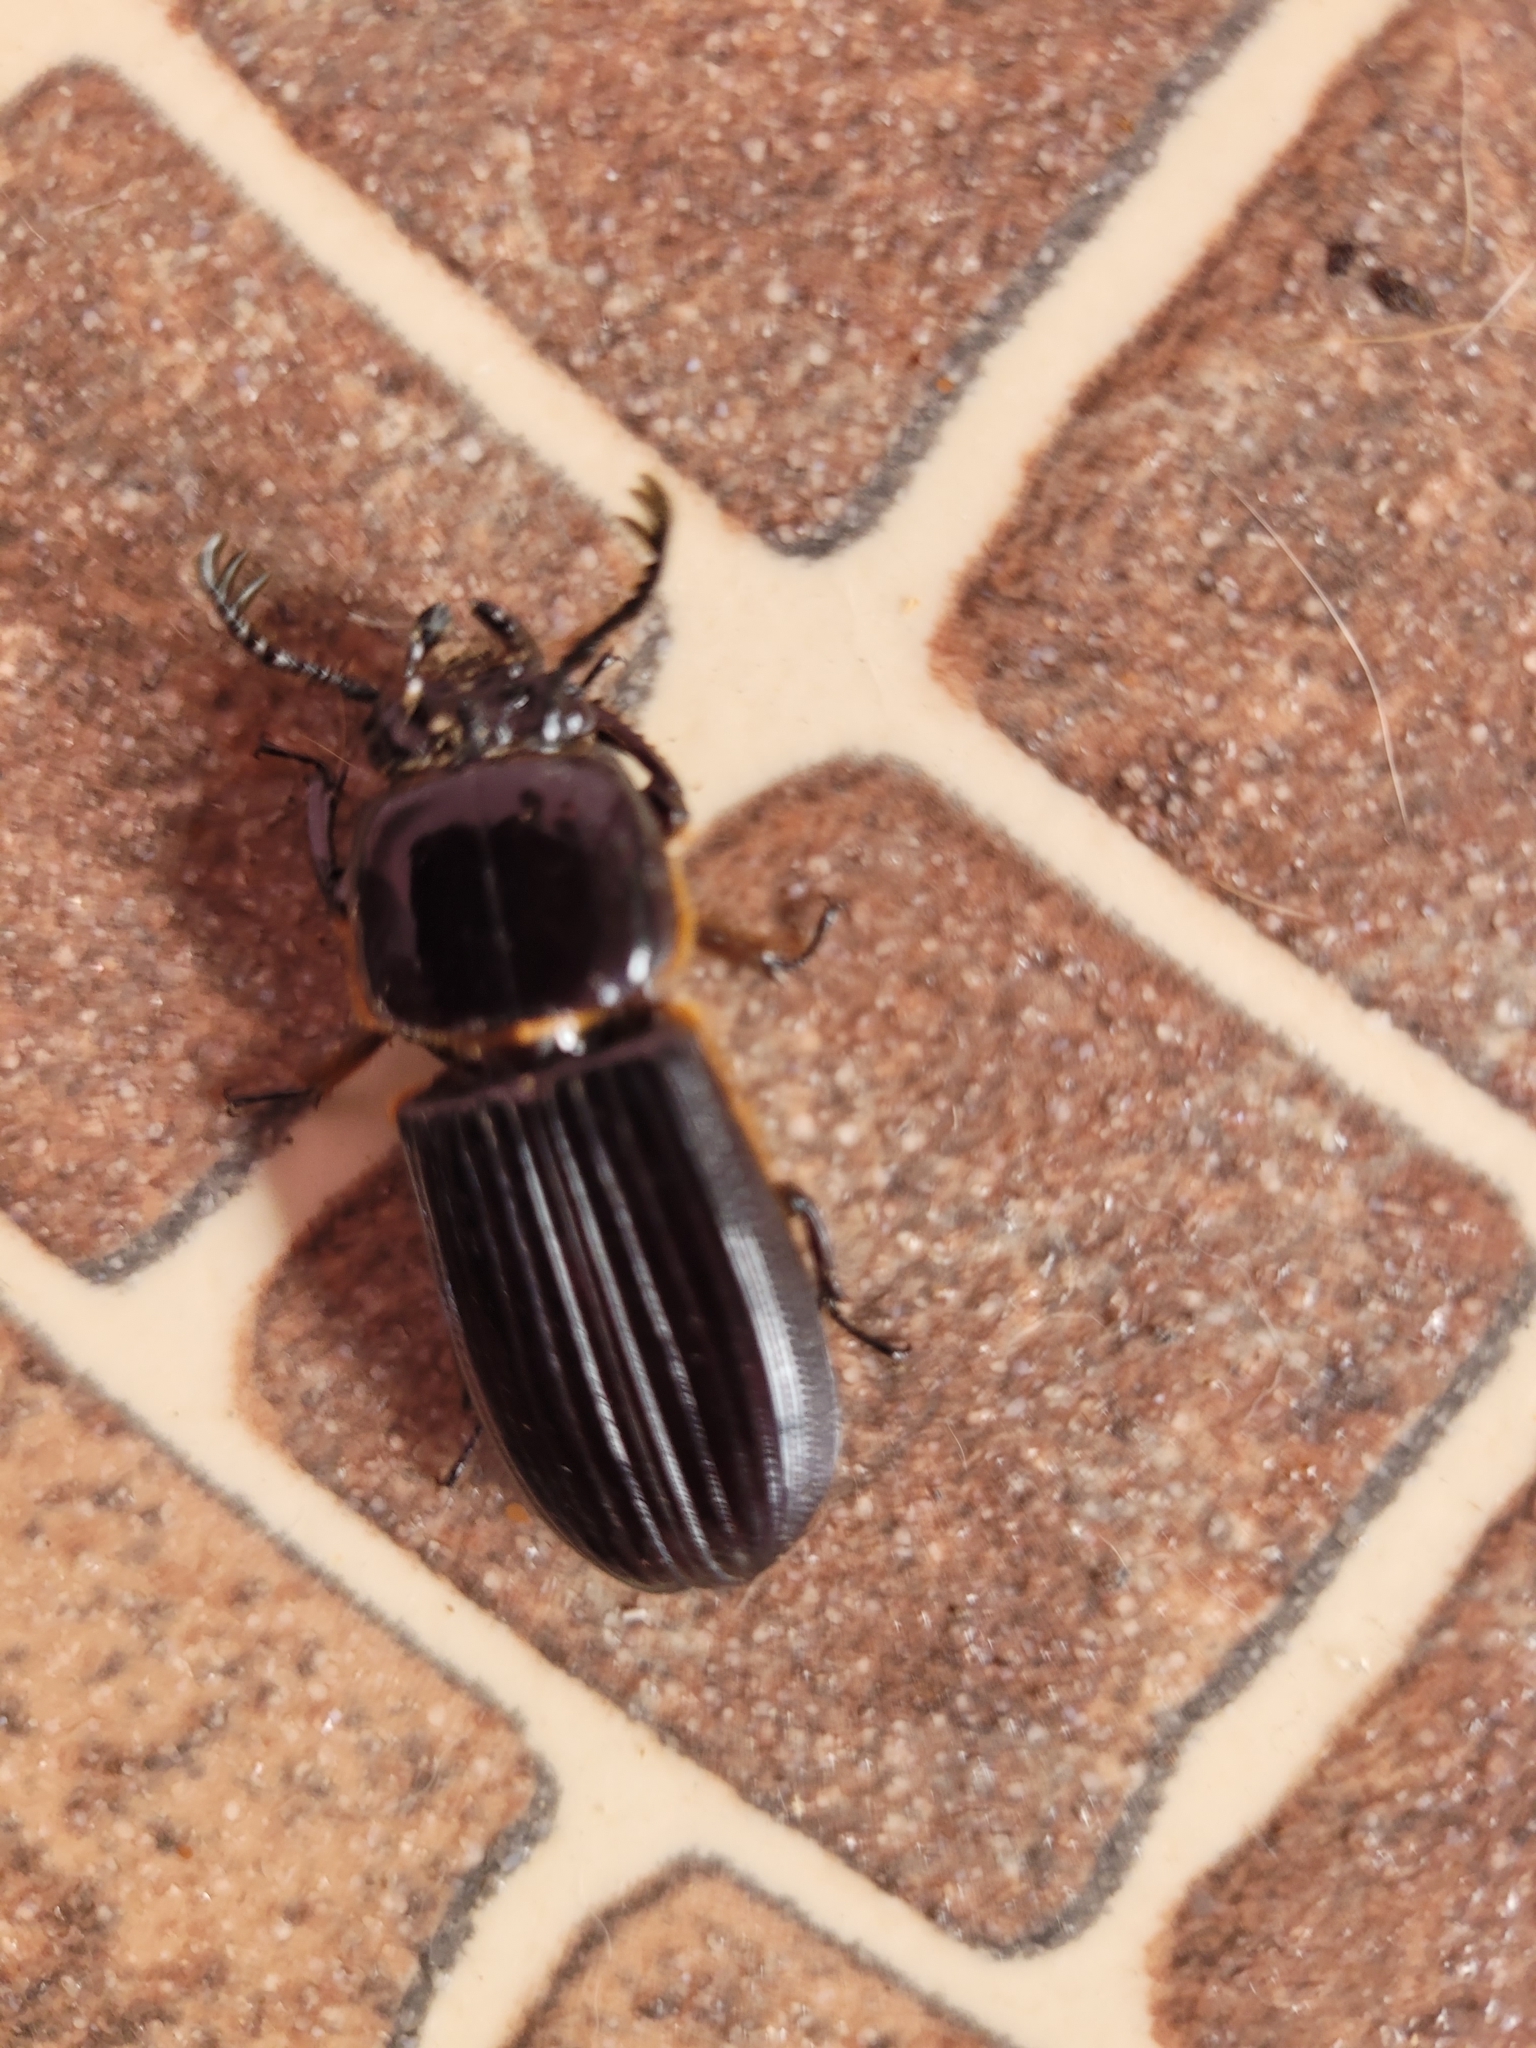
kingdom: Animalia
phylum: Arthropoda
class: Insecta
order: Coleoptera
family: Passalidae
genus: Ptichopus
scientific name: Ptichopus angulatus
